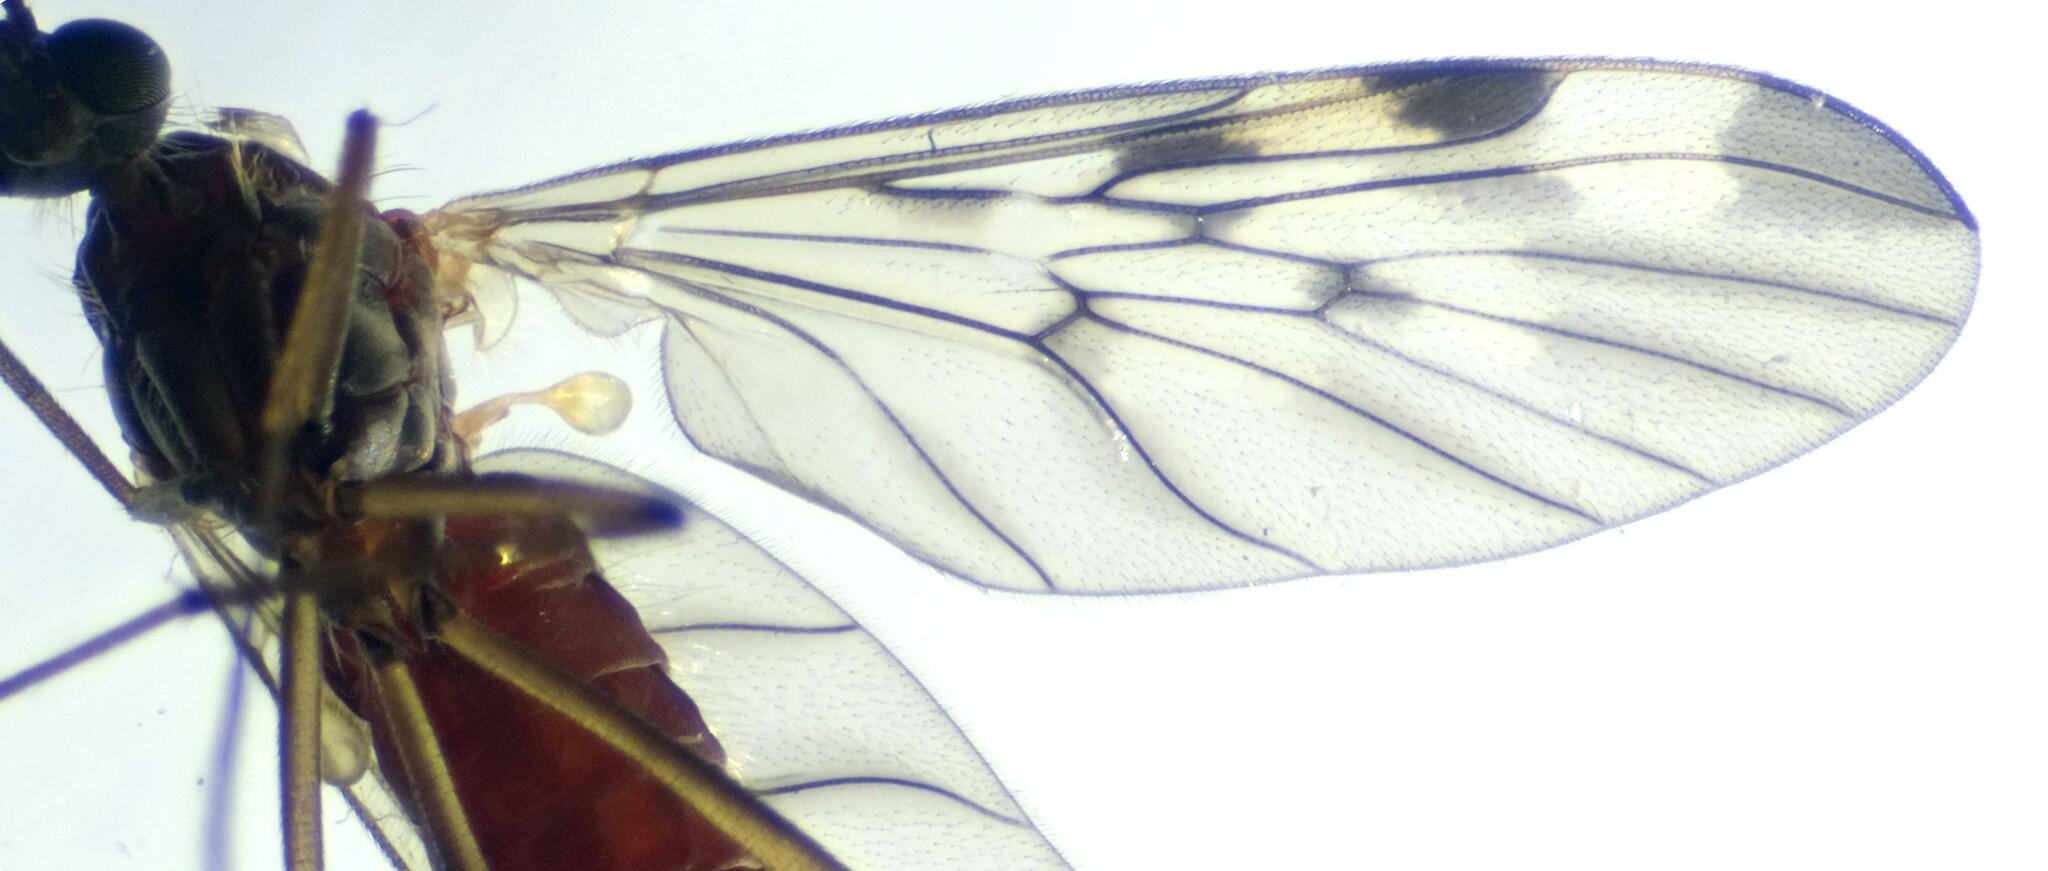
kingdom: Animalia
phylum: Arthropoda
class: Insecta
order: Diptera
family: Anisopodidae
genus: Sylvicola
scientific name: Sylvicola cinctus
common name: Wood gnat
